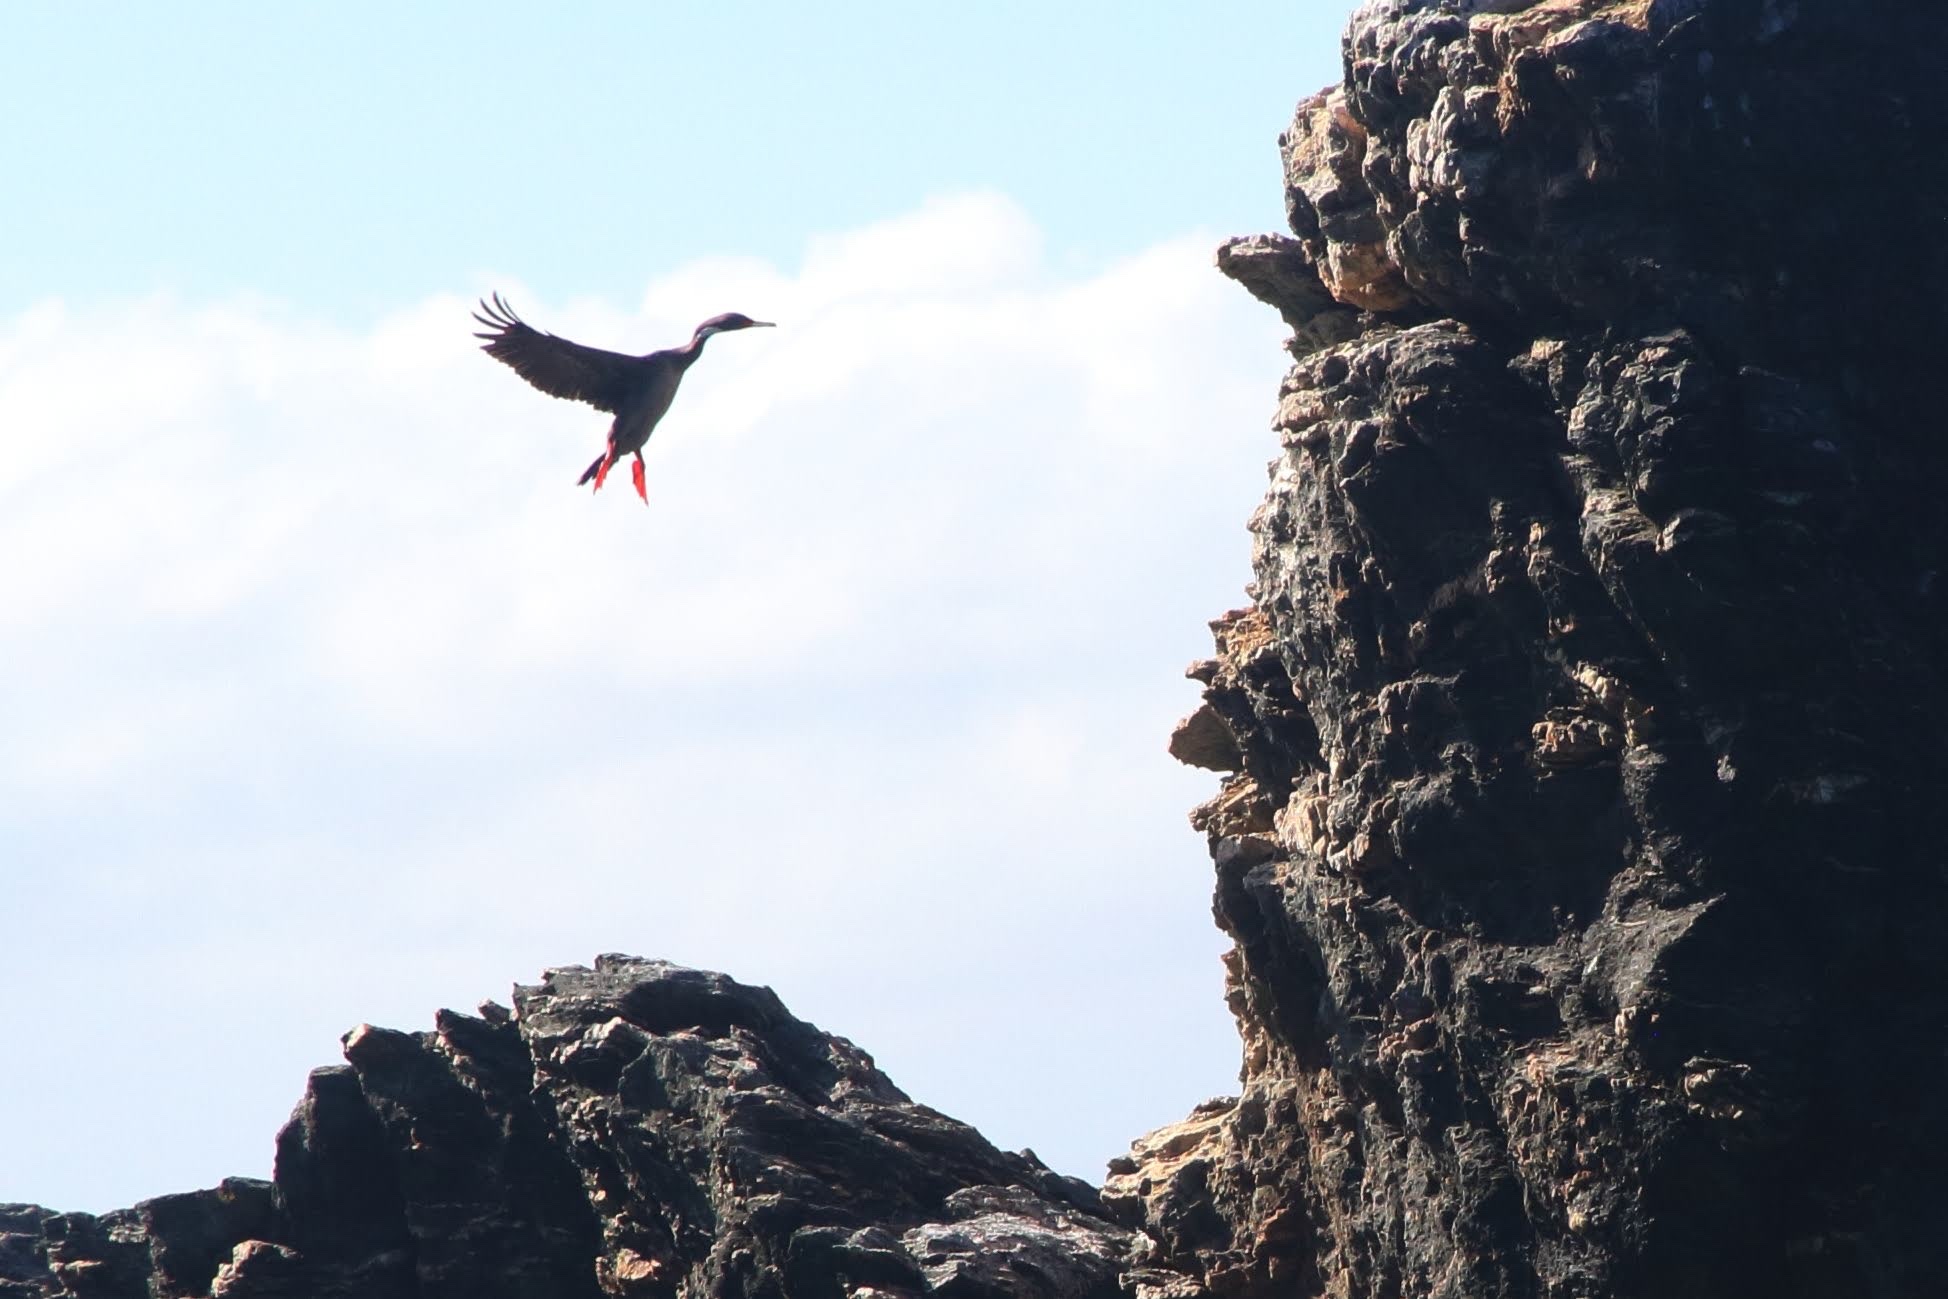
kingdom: Animalia
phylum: Chordata
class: Aves
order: Suliformes
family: Phalacrocoracidae
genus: Phalacrocorax
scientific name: Phalacrocorax gaimardi
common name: Red-legged cormorant
